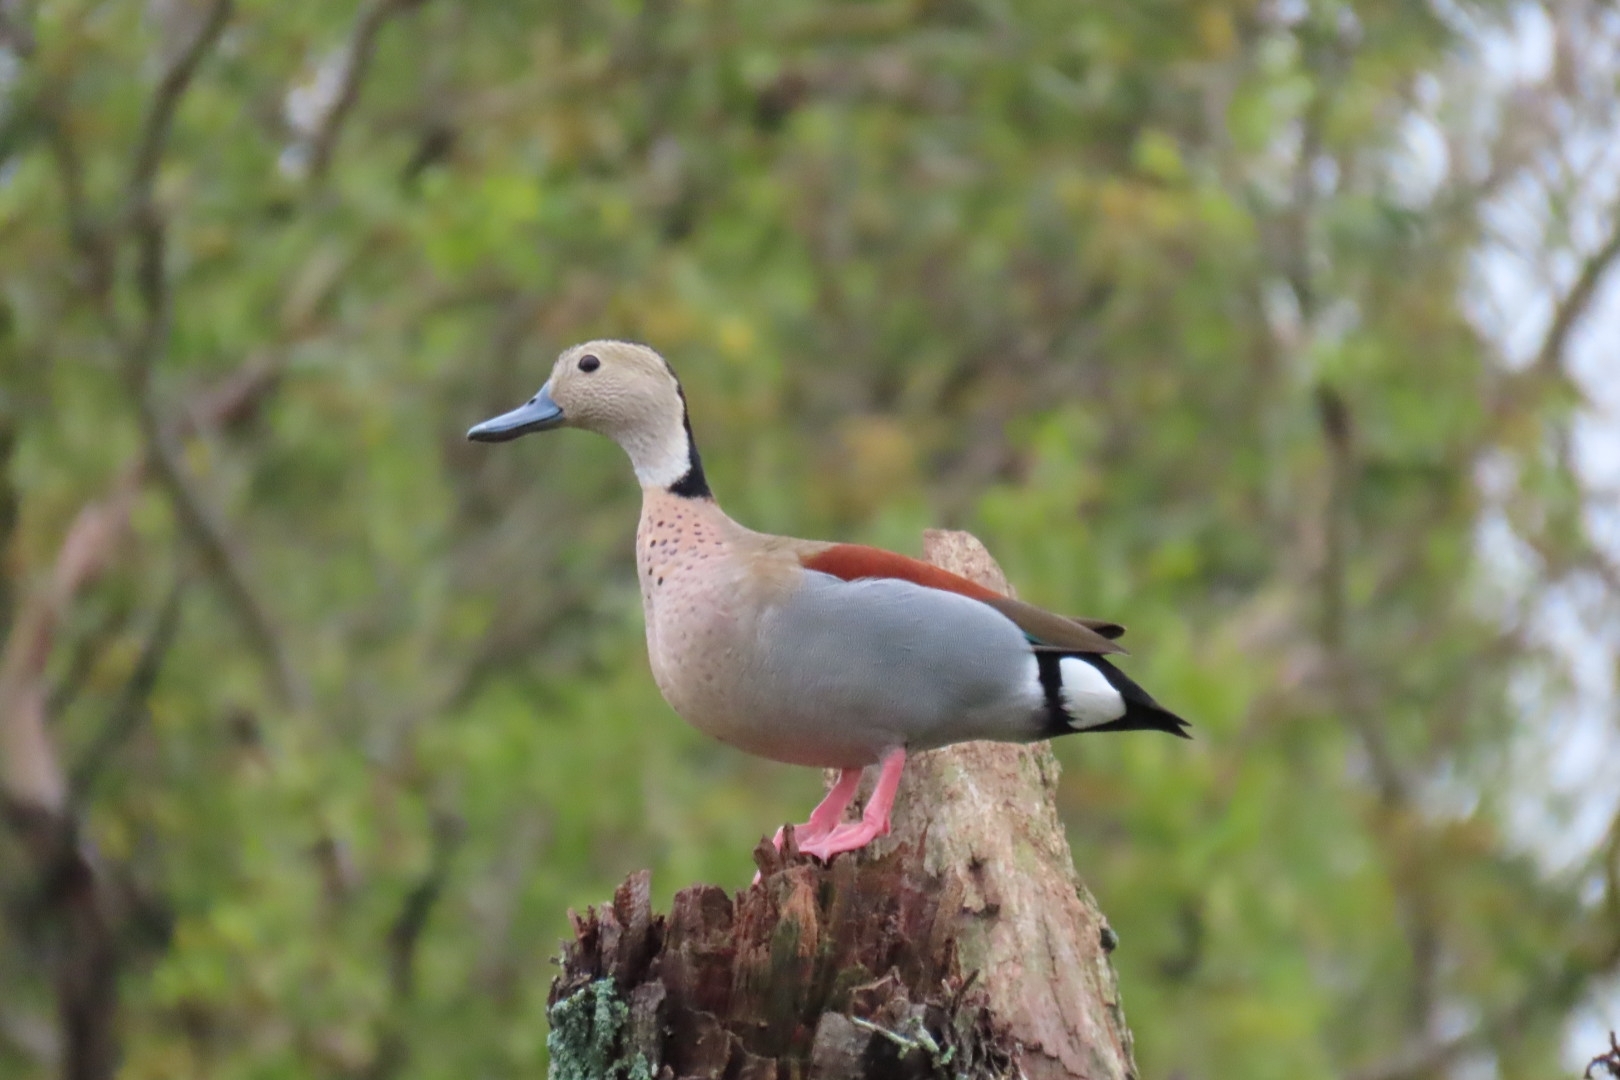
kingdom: Animalia
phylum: Chordata
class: Aves
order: Anseriformes
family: Anatidae
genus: Callonetta
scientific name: Callonetta leucophrys
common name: Ringed teal
